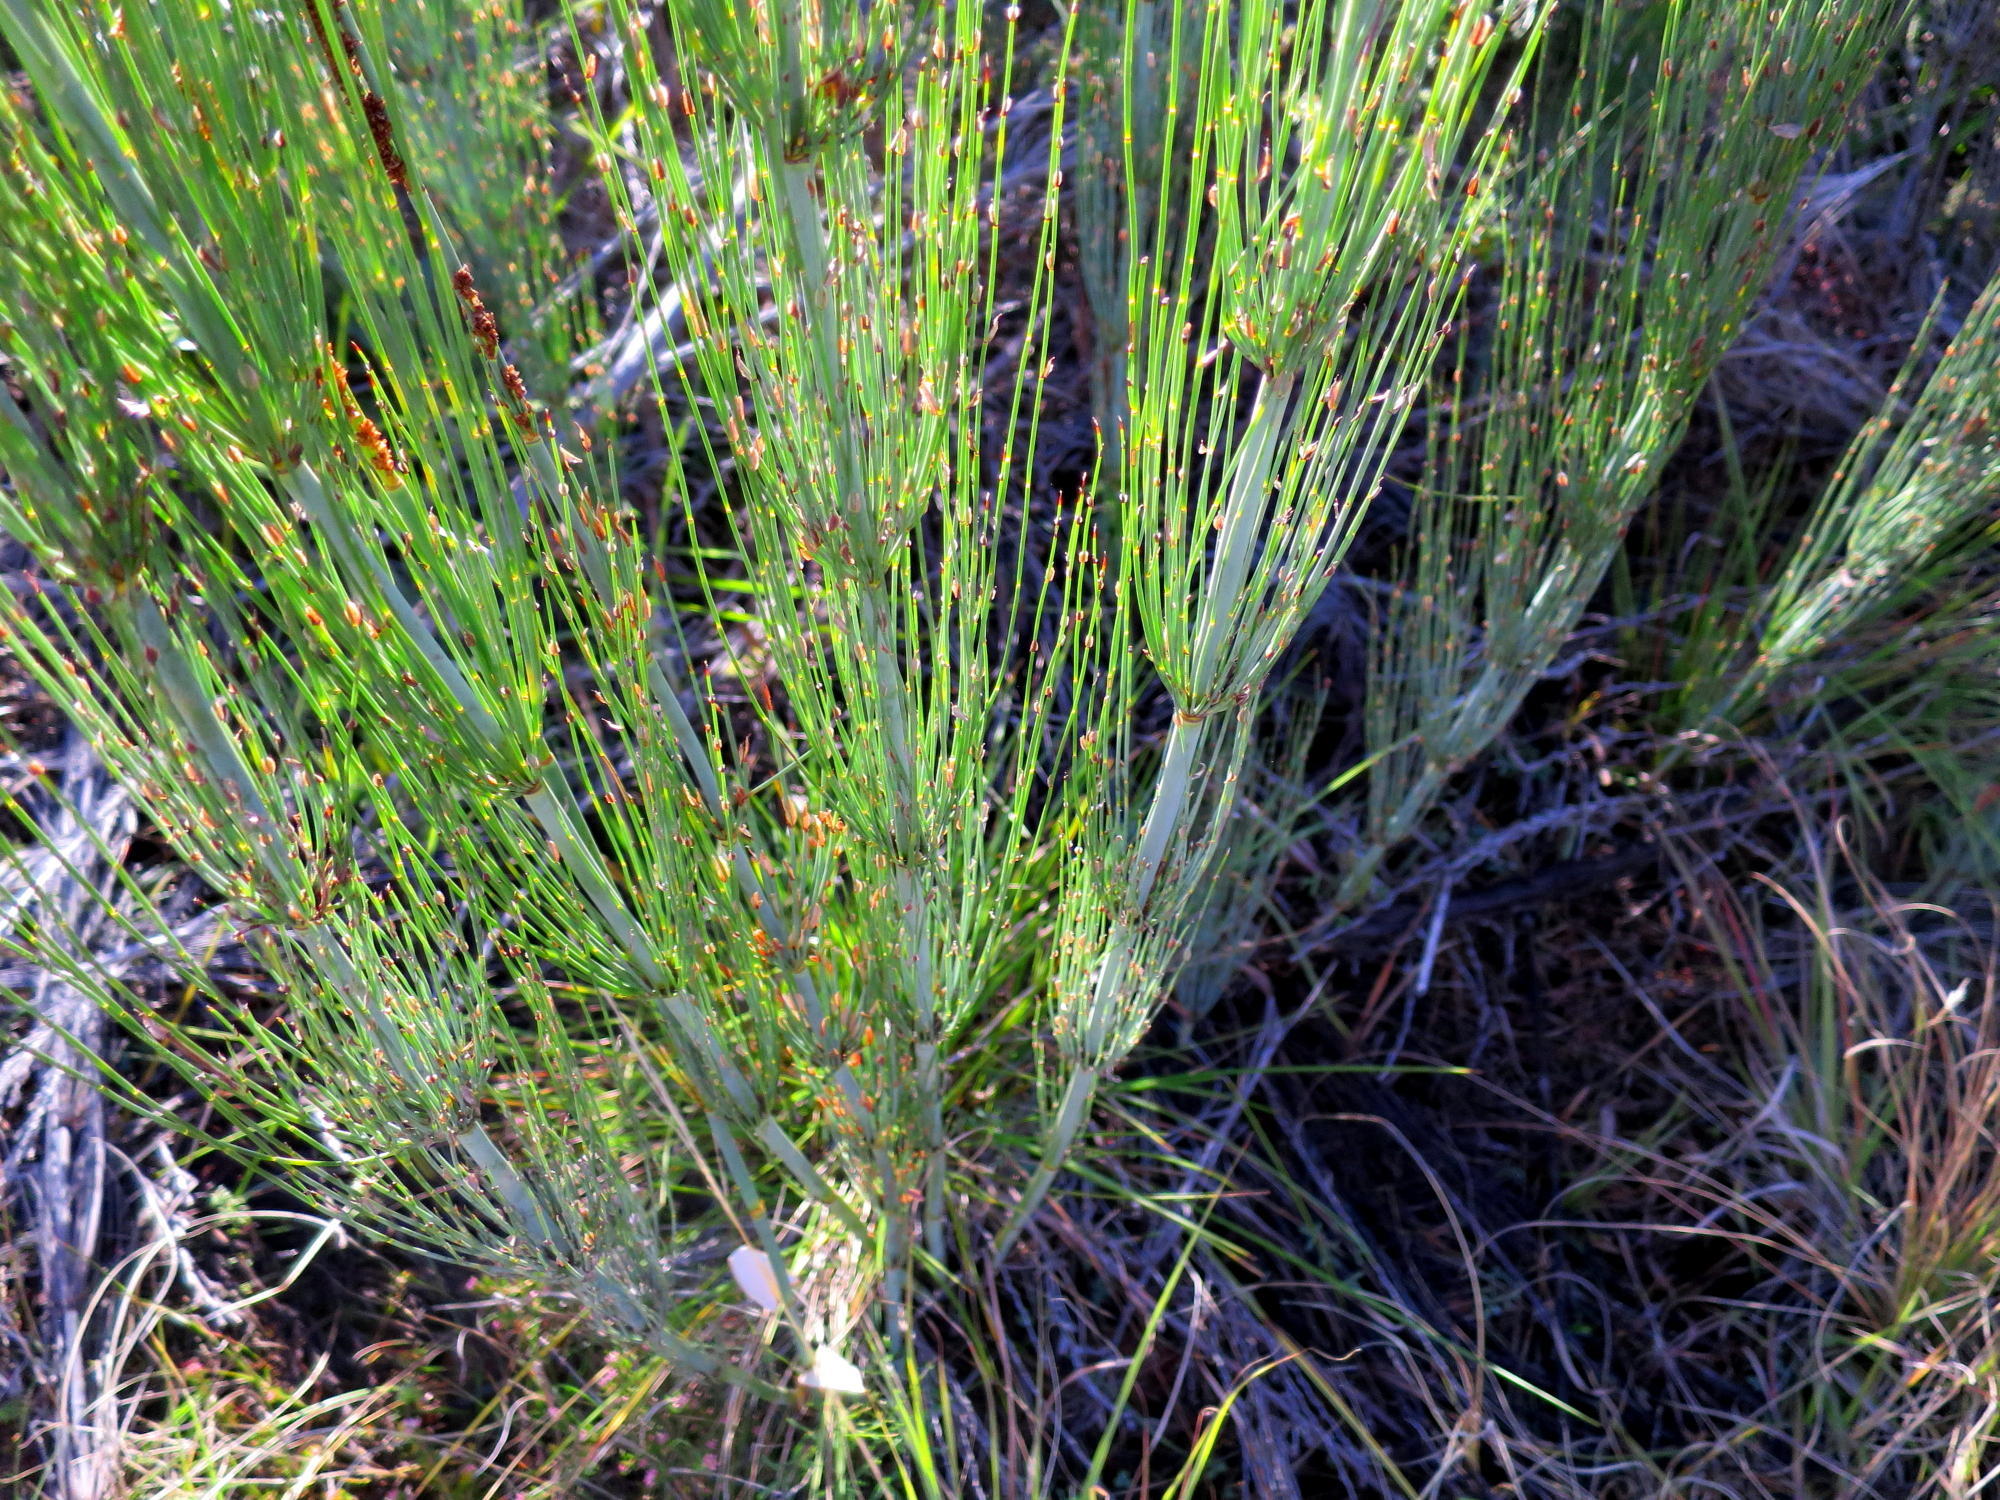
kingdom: Plantae
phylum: Tracheophyta
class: Liliopsida
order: Poales
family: Restionaceae
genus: Elegia
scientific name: Elegia capensis
